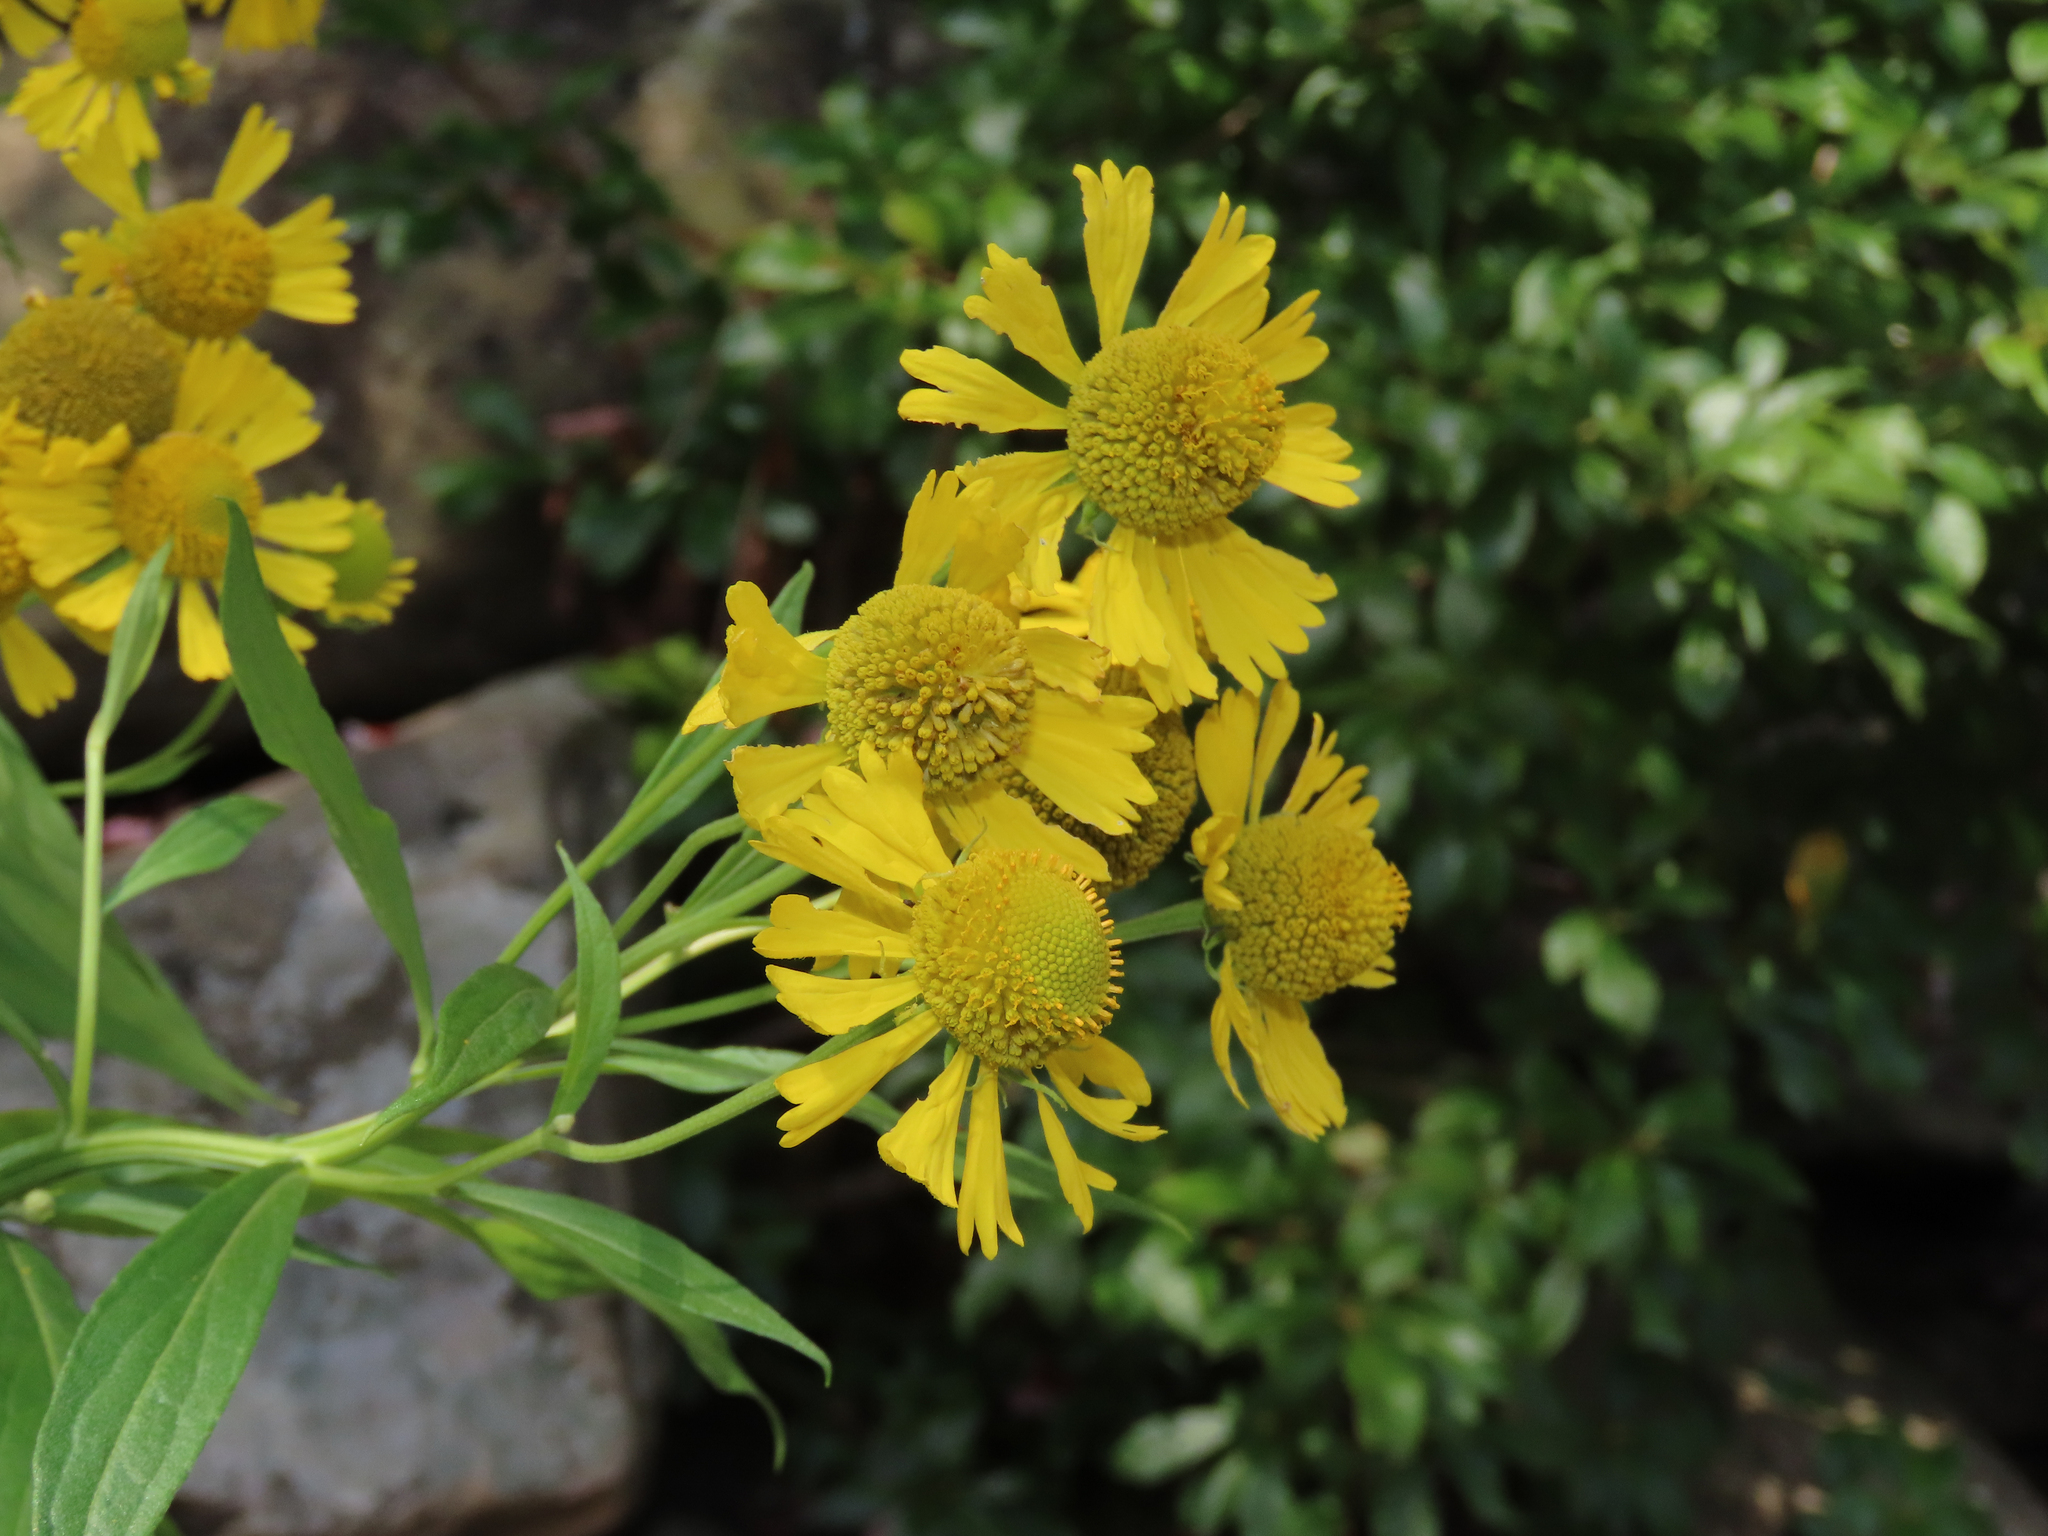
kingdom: Plantae
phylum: Tracheophyta
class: Magnoliopsida
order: Asterales
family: Asteraceae
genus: Helenium
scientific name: Helenium autumnale
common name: Sneezeweed
